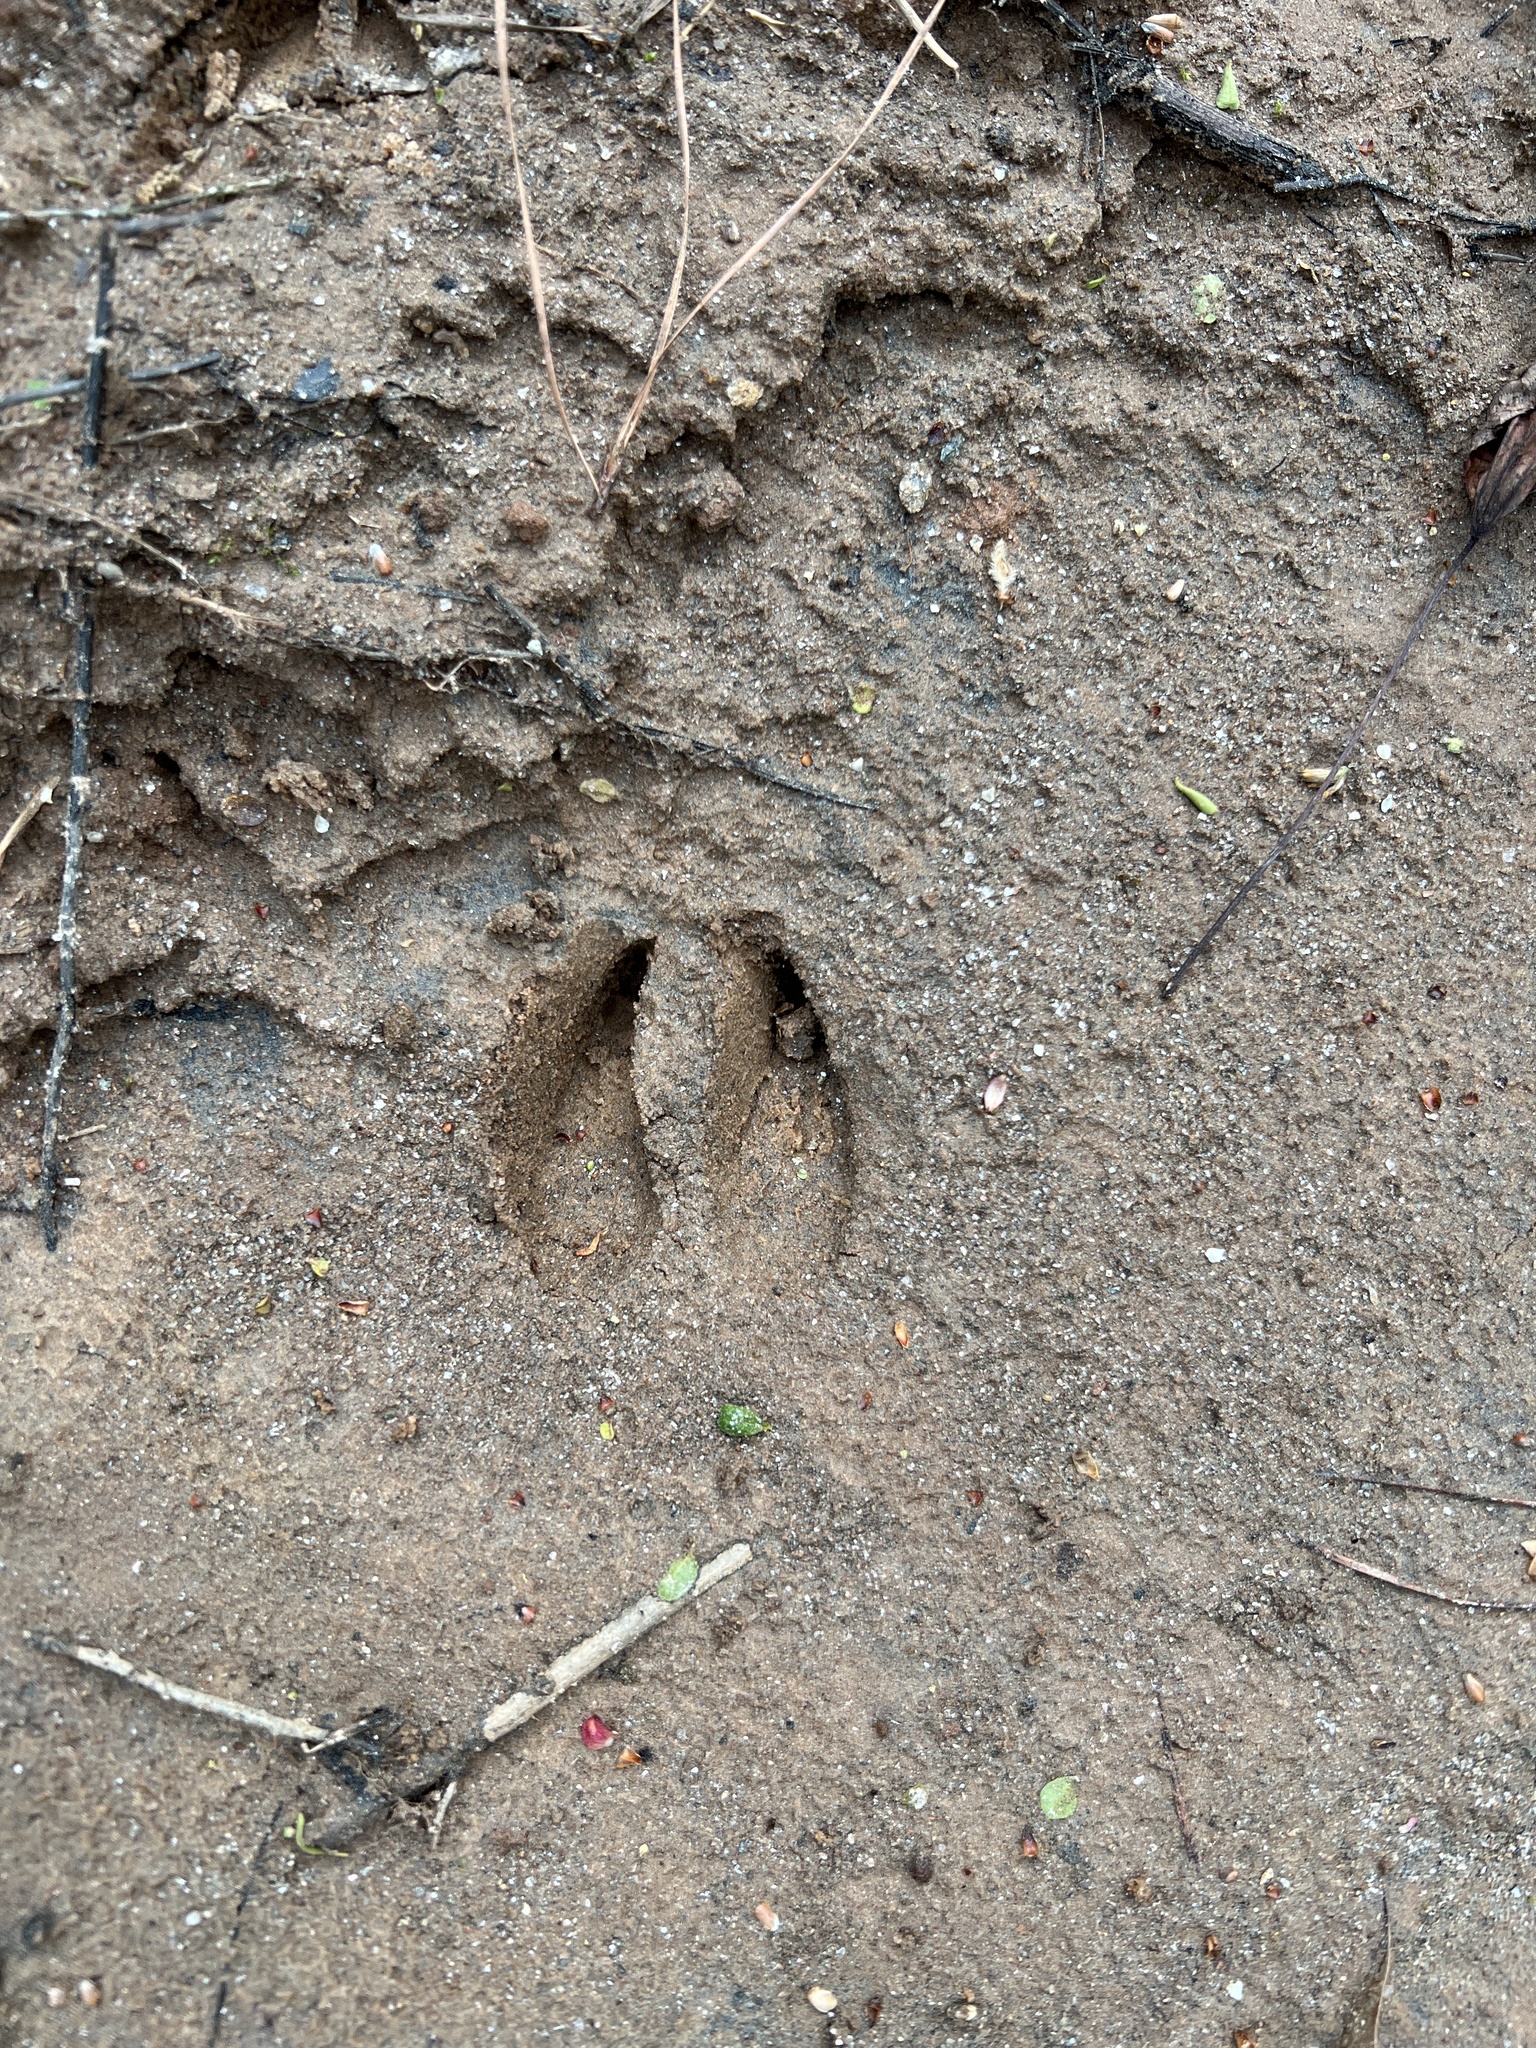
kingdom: Animalia
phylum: Chordata
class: Mammalia
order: Artiodactyla
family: Cervidae
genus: Odocoileus
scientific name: Odocoileus virginianus
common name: White-tailed deer
